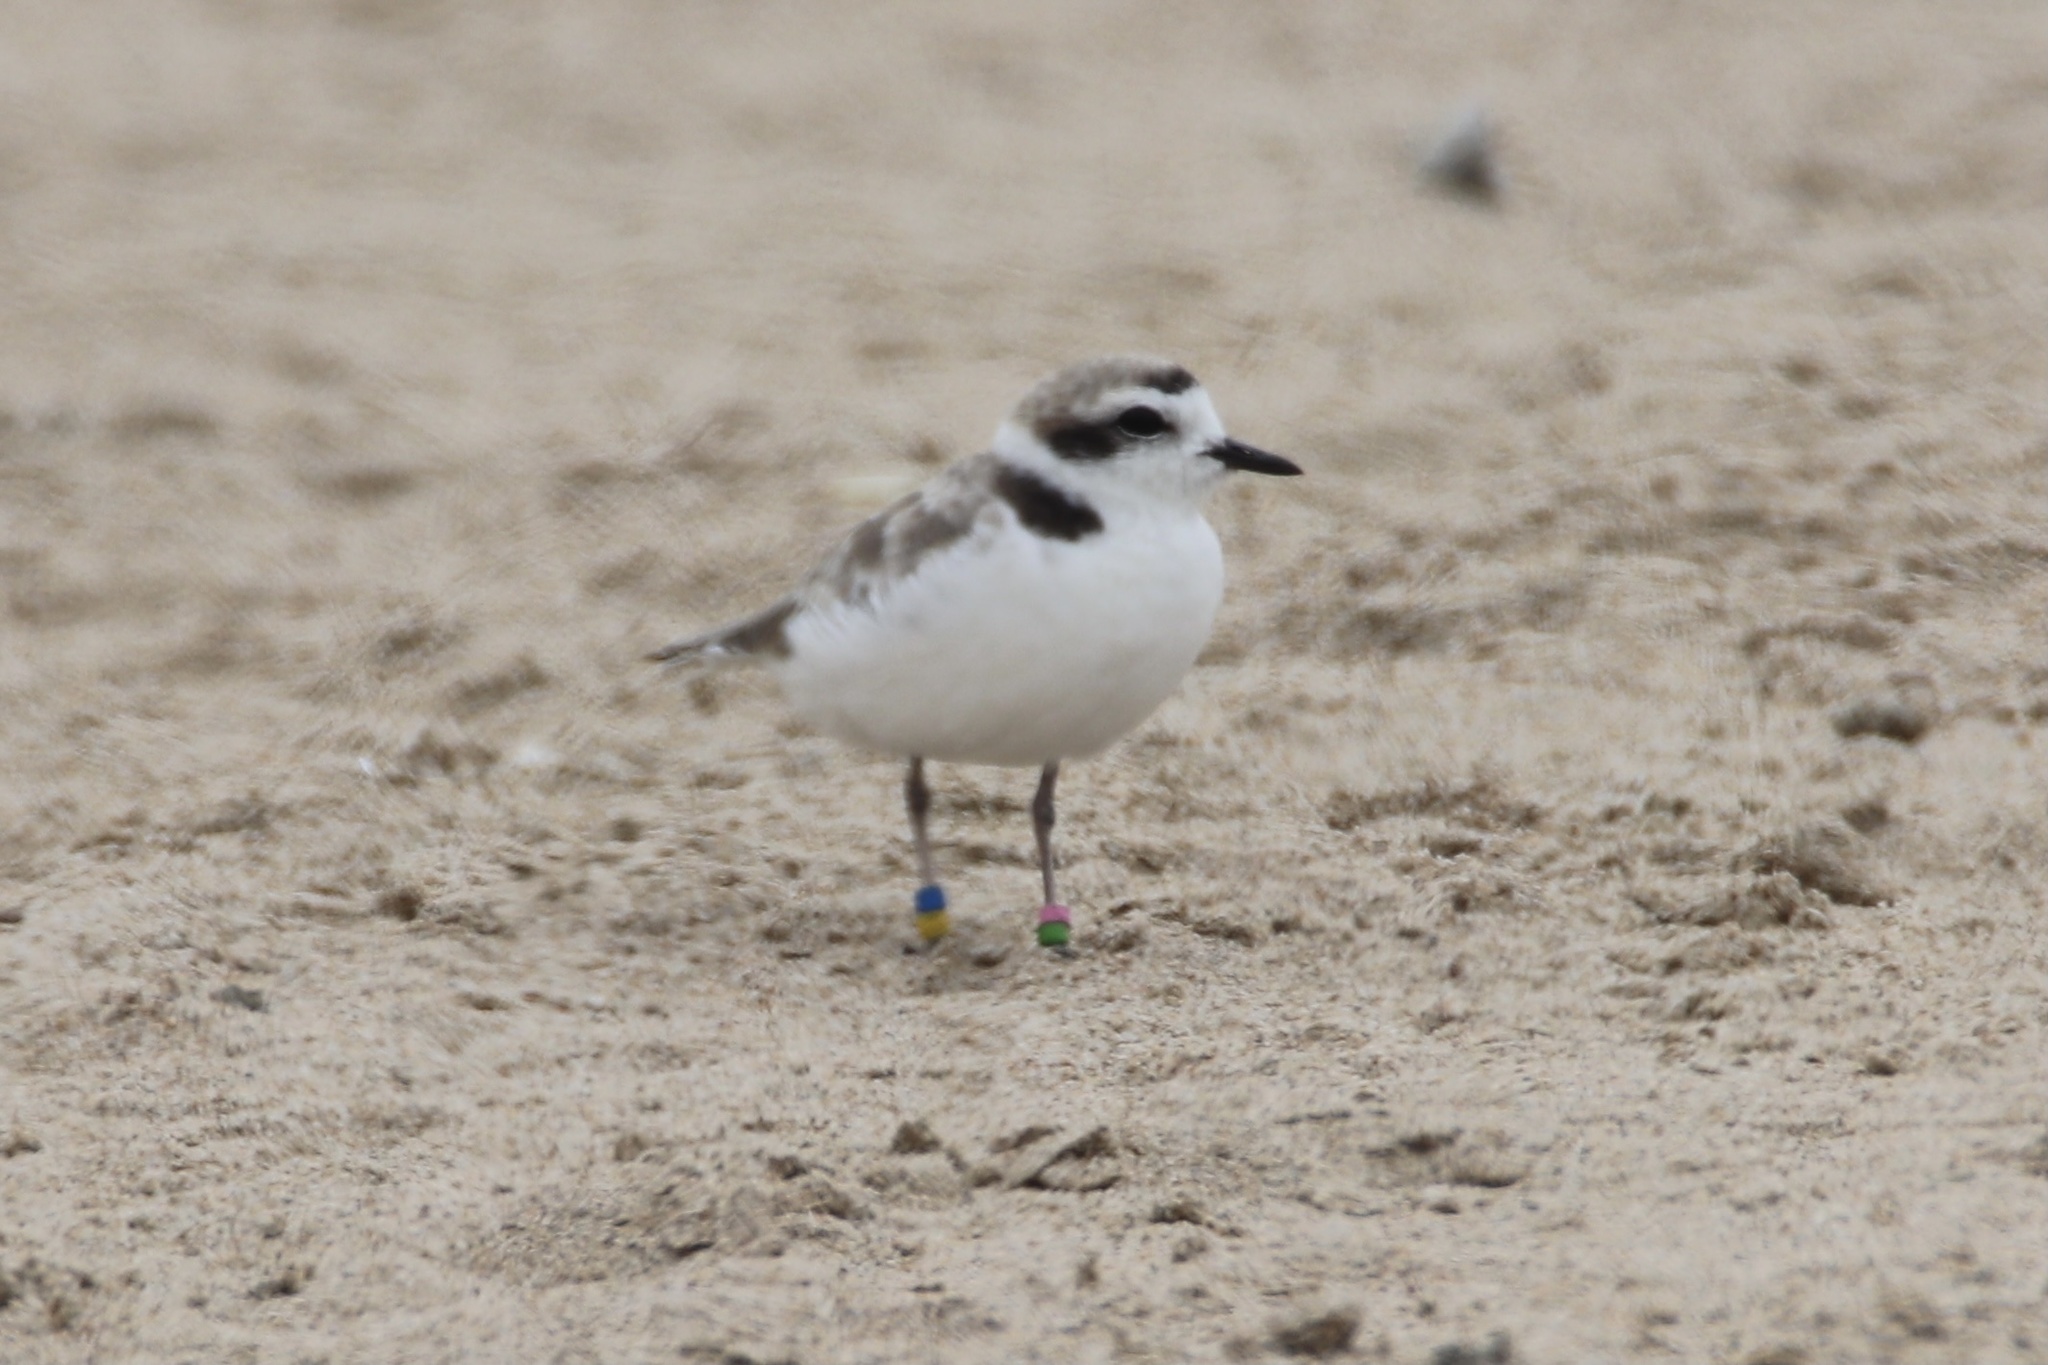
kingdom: Animalia
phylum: Chordata
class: Aves
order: Charadriiformes
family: Charadriidae
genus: Anarhynchus
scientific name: Anarhynchus
